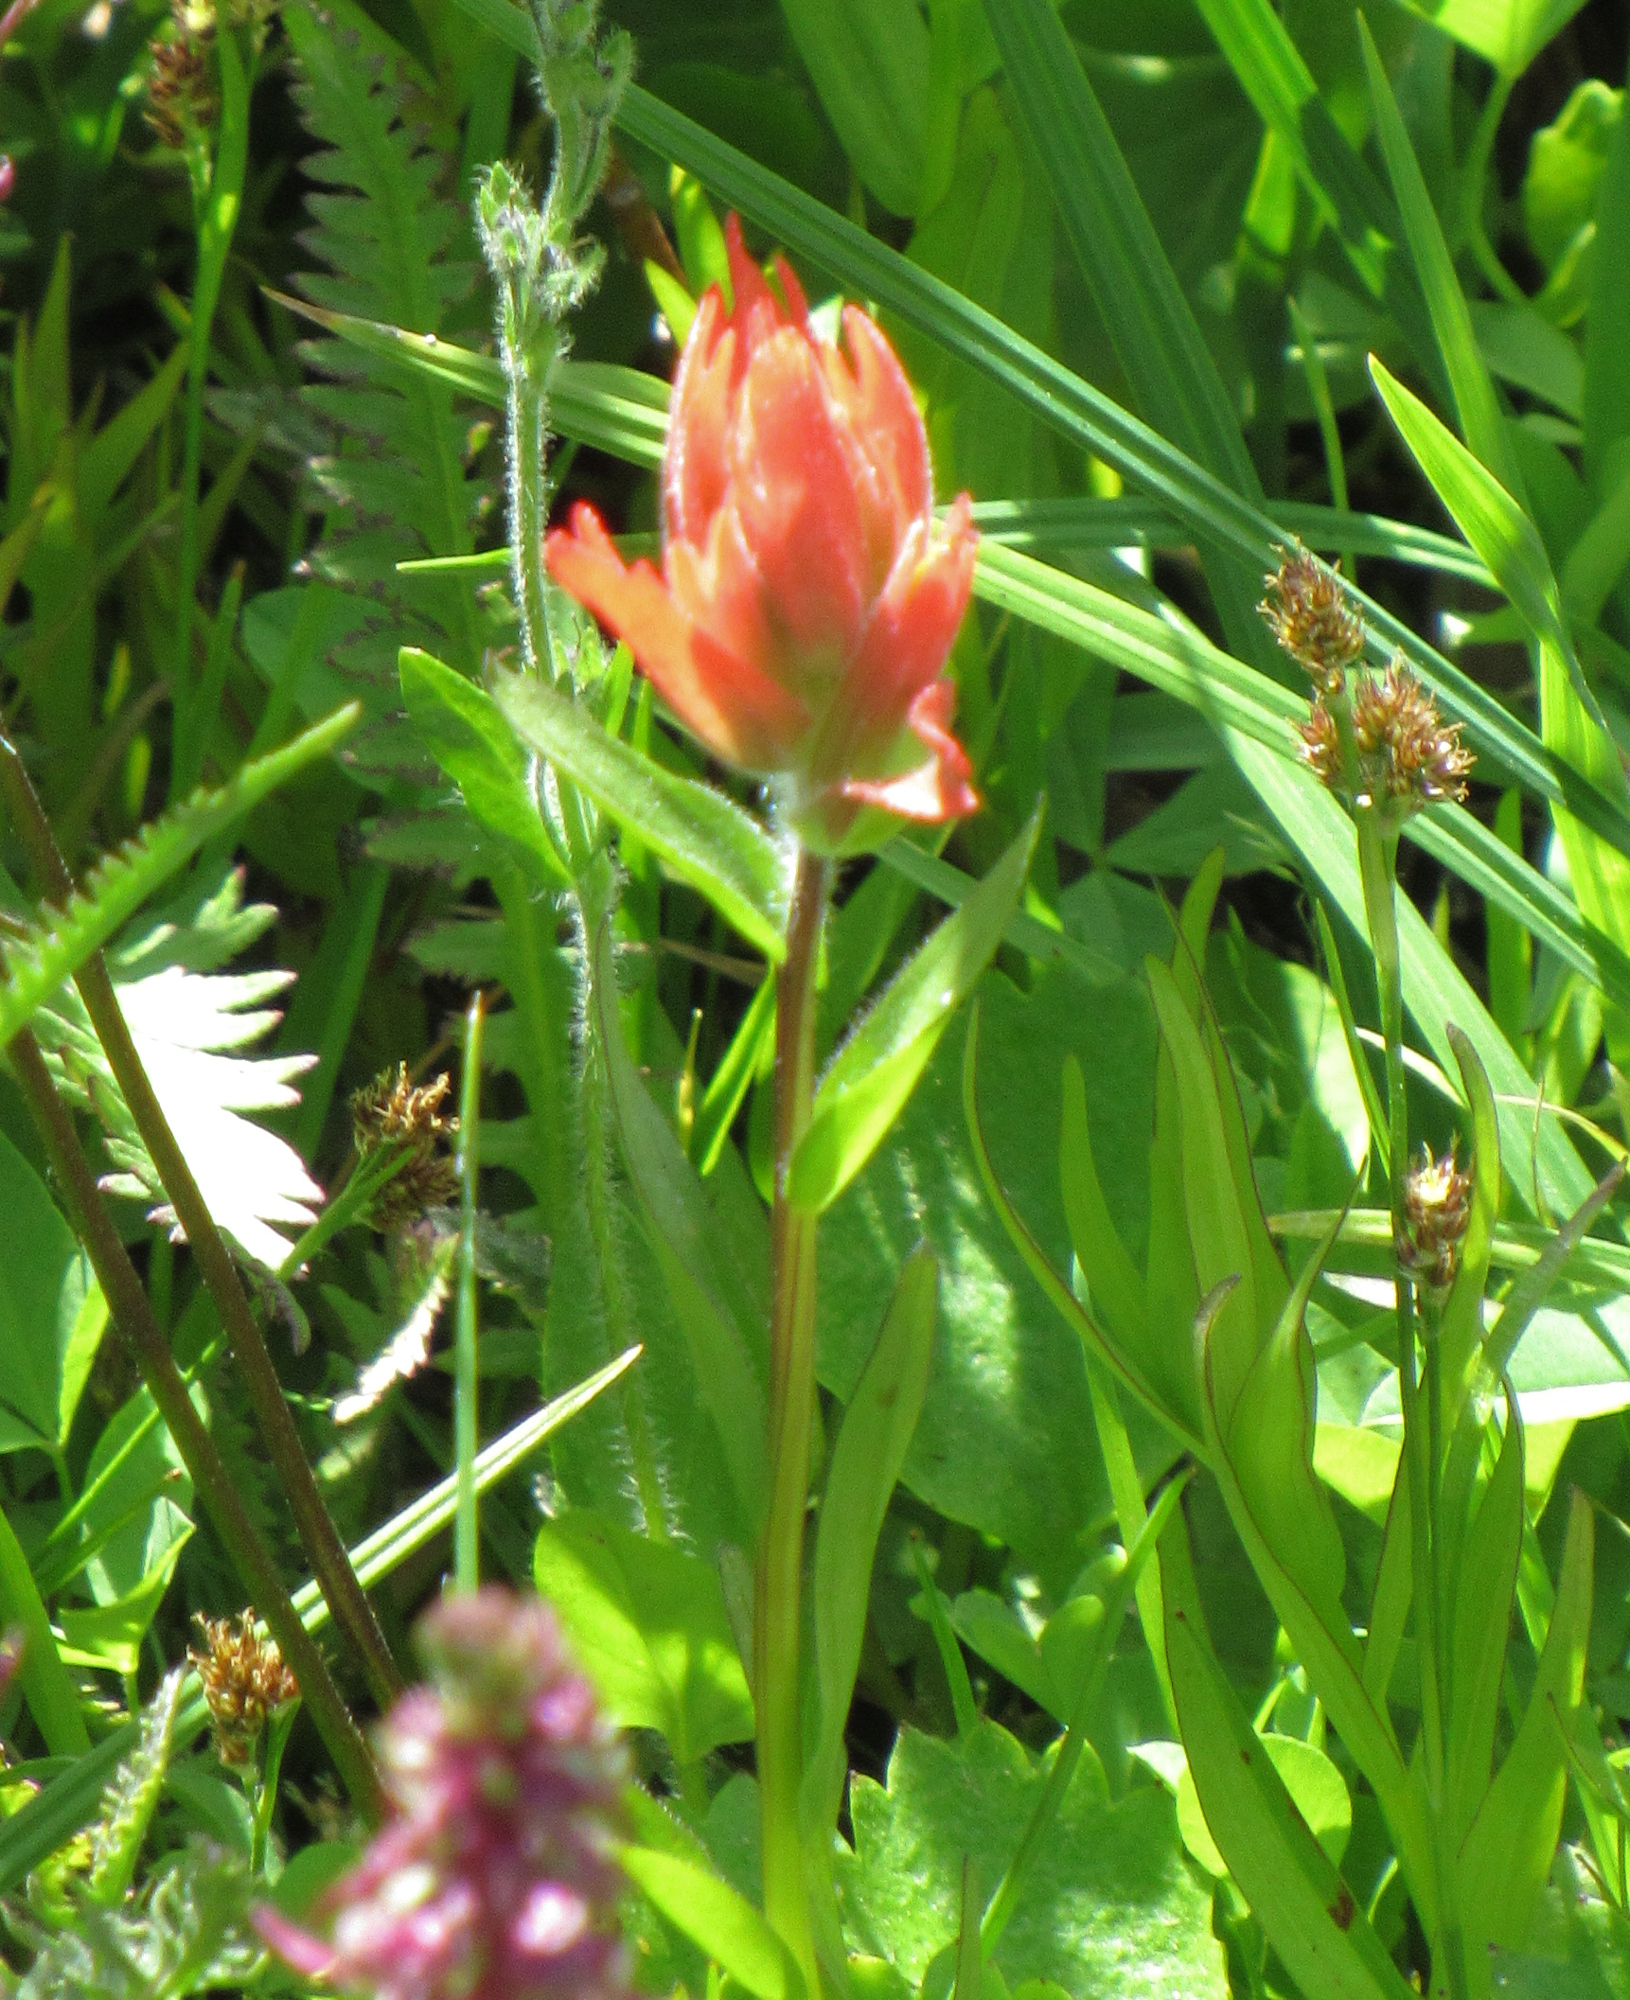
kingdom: Plantae
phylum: Tracheophyta
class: Magnoliopsida
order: Lamiales
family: Orobanchaceae
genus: Castilleja
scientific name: Castilleja miniata
